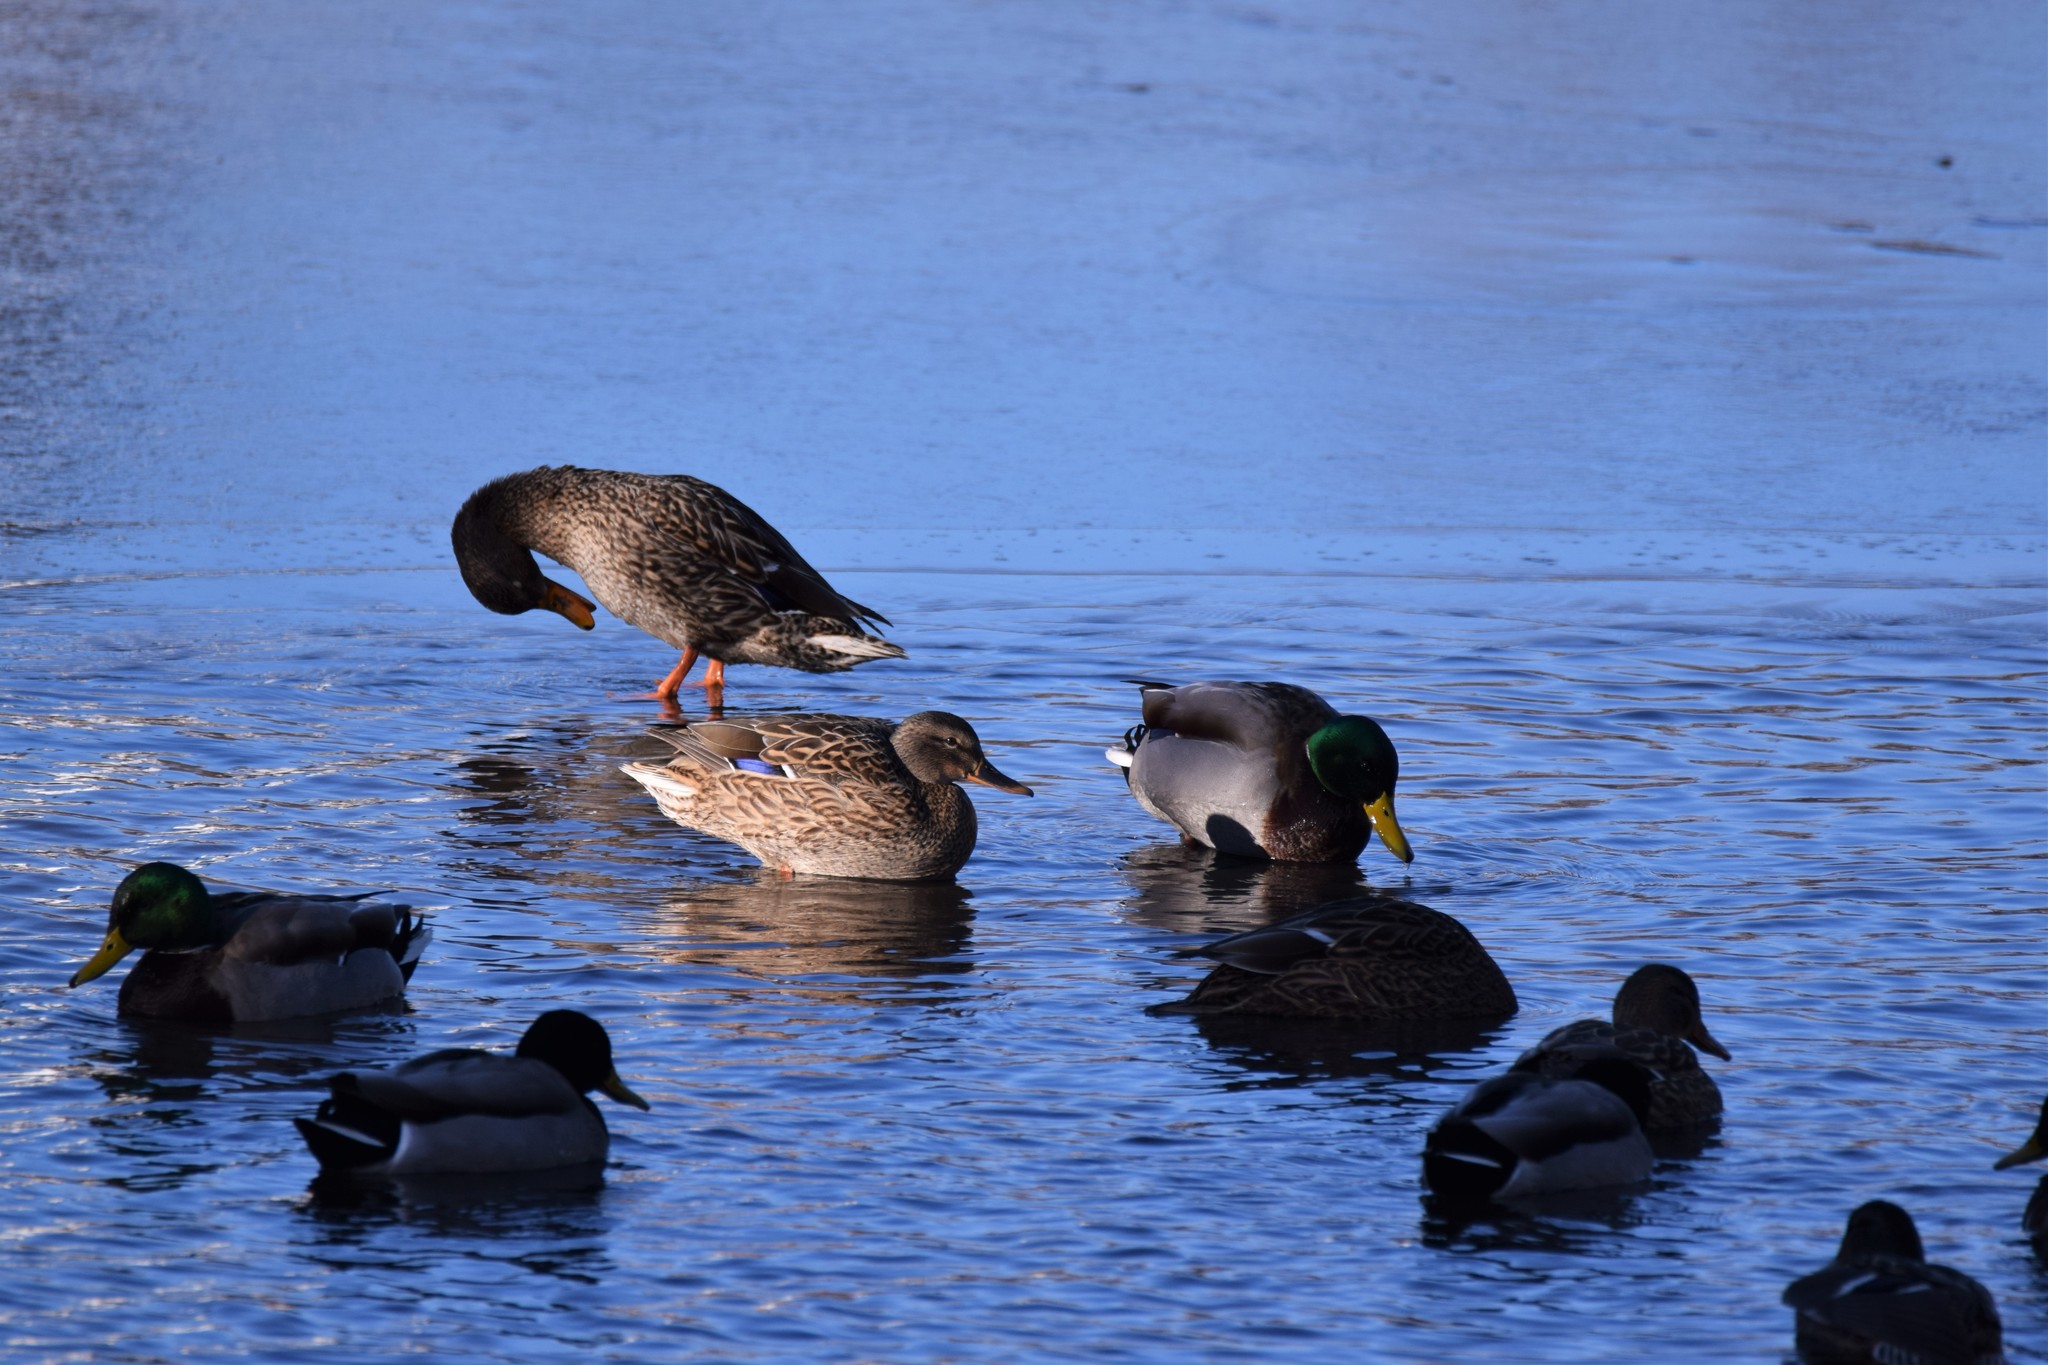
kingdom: Animalia
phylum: Chordata
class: Aves
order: Anseriformes
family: Anatidae
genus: Anas
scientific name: Anas platyrhynchos
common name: Mallard
